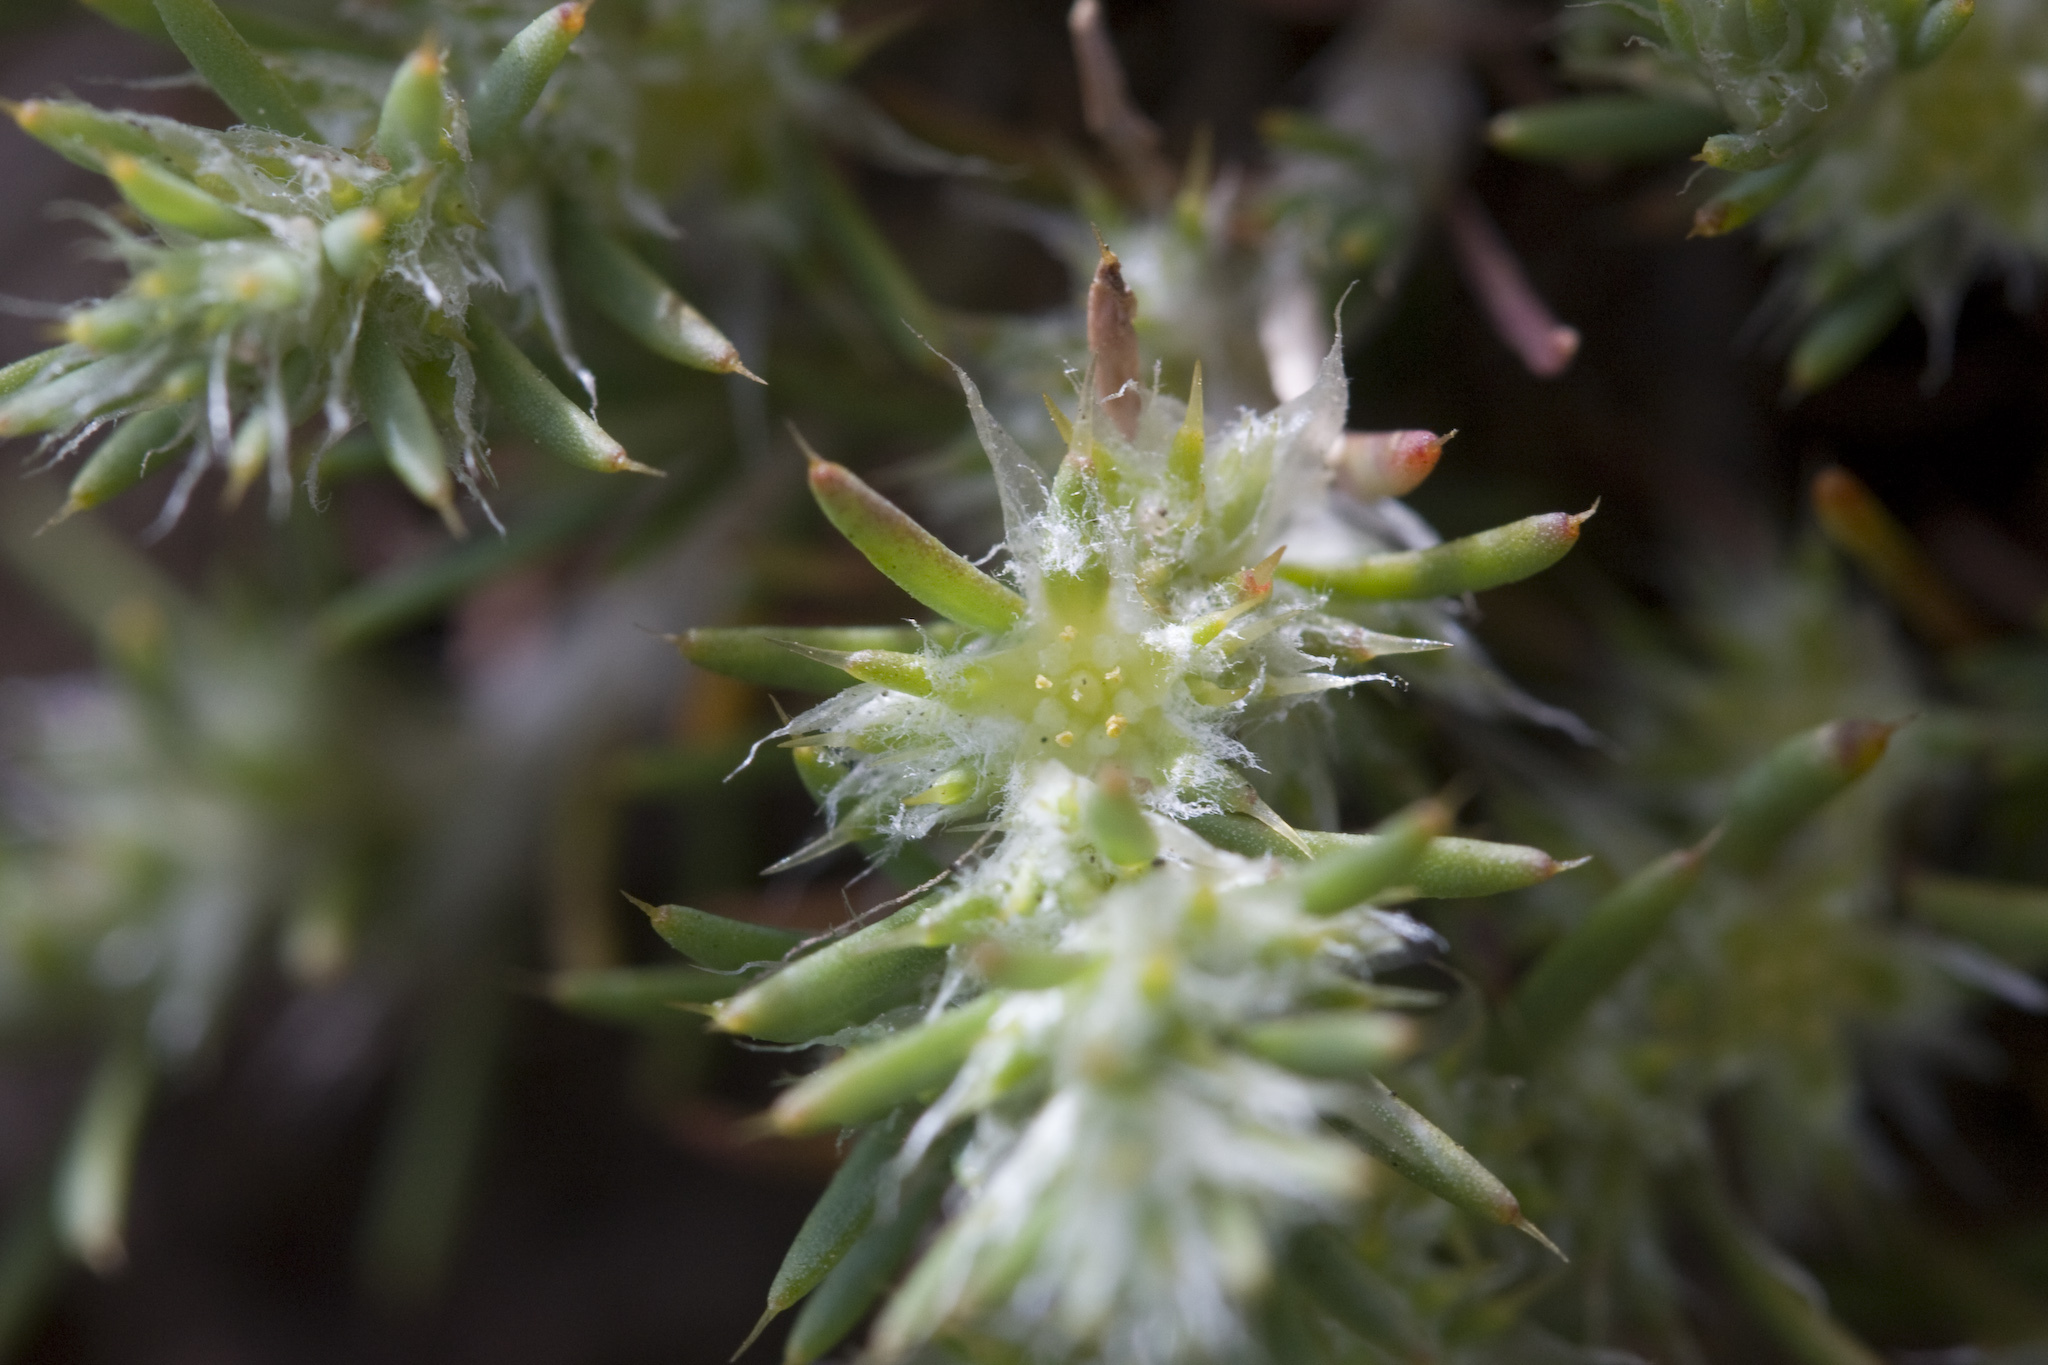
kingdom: Plantae
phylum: Tracheophyta
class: Magnoliopsida
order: Caryophyllales
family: Caryophyllaceae
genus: Cardionema
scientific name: Cardionema ramosissima
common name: Sandcarpet
